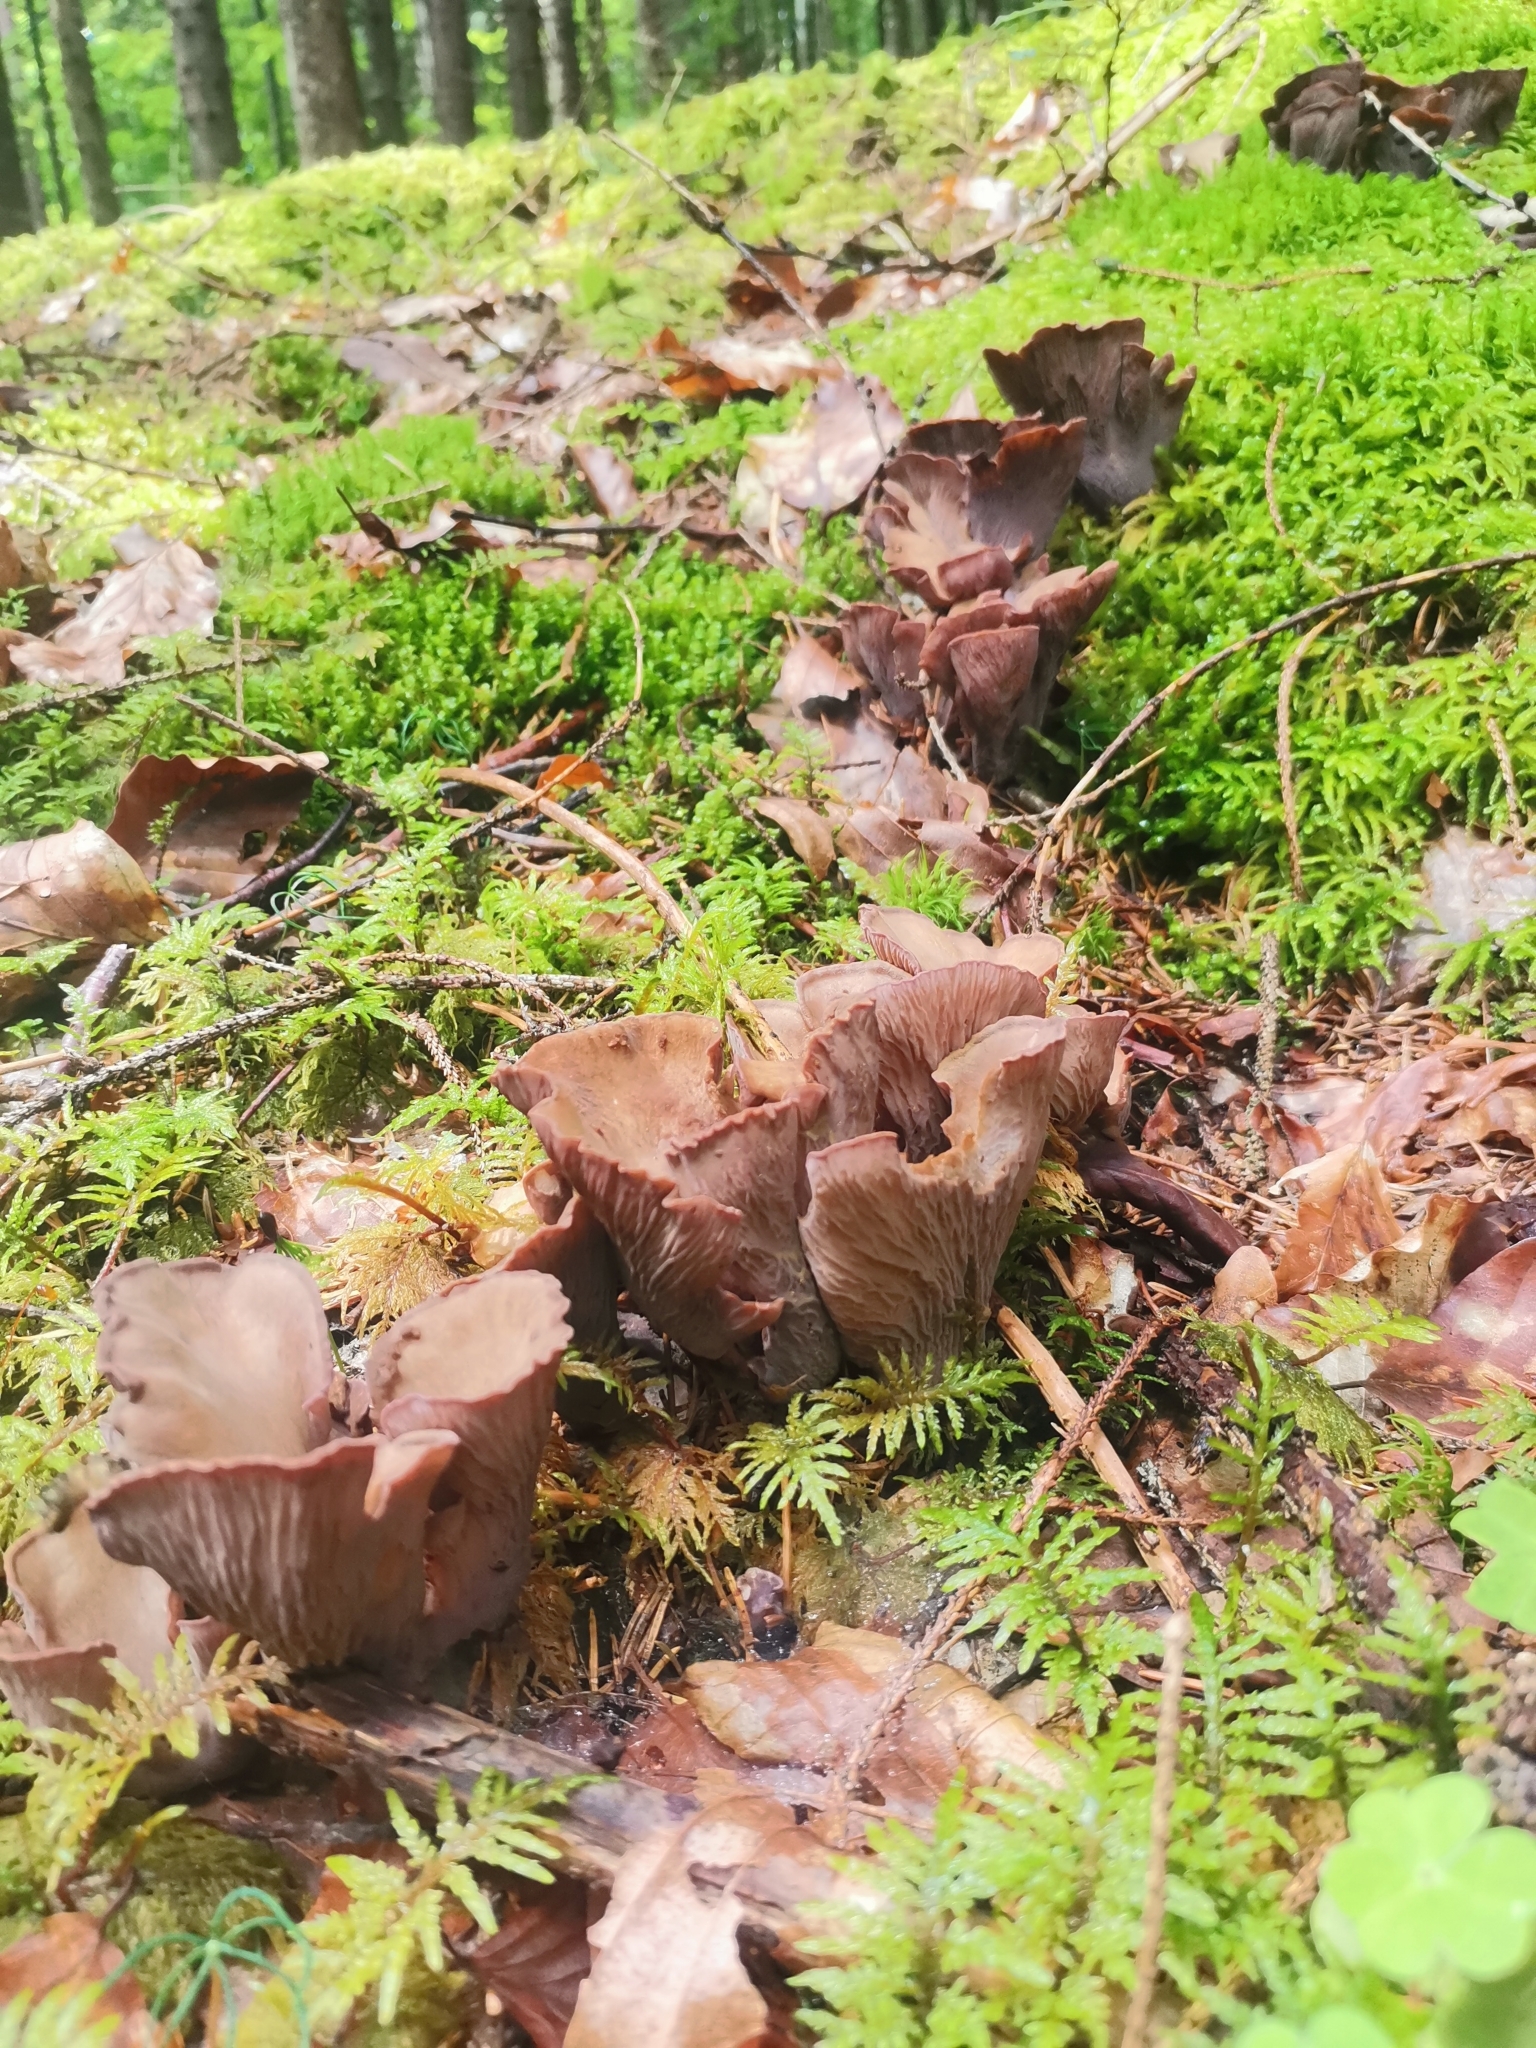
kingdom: Fungi
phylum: Basidiomycota
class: Agaricomycetes
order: Gomphales
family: Gomphaceae
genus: Gomphus
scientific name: Gomphus clavatus
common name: Pig's ear
